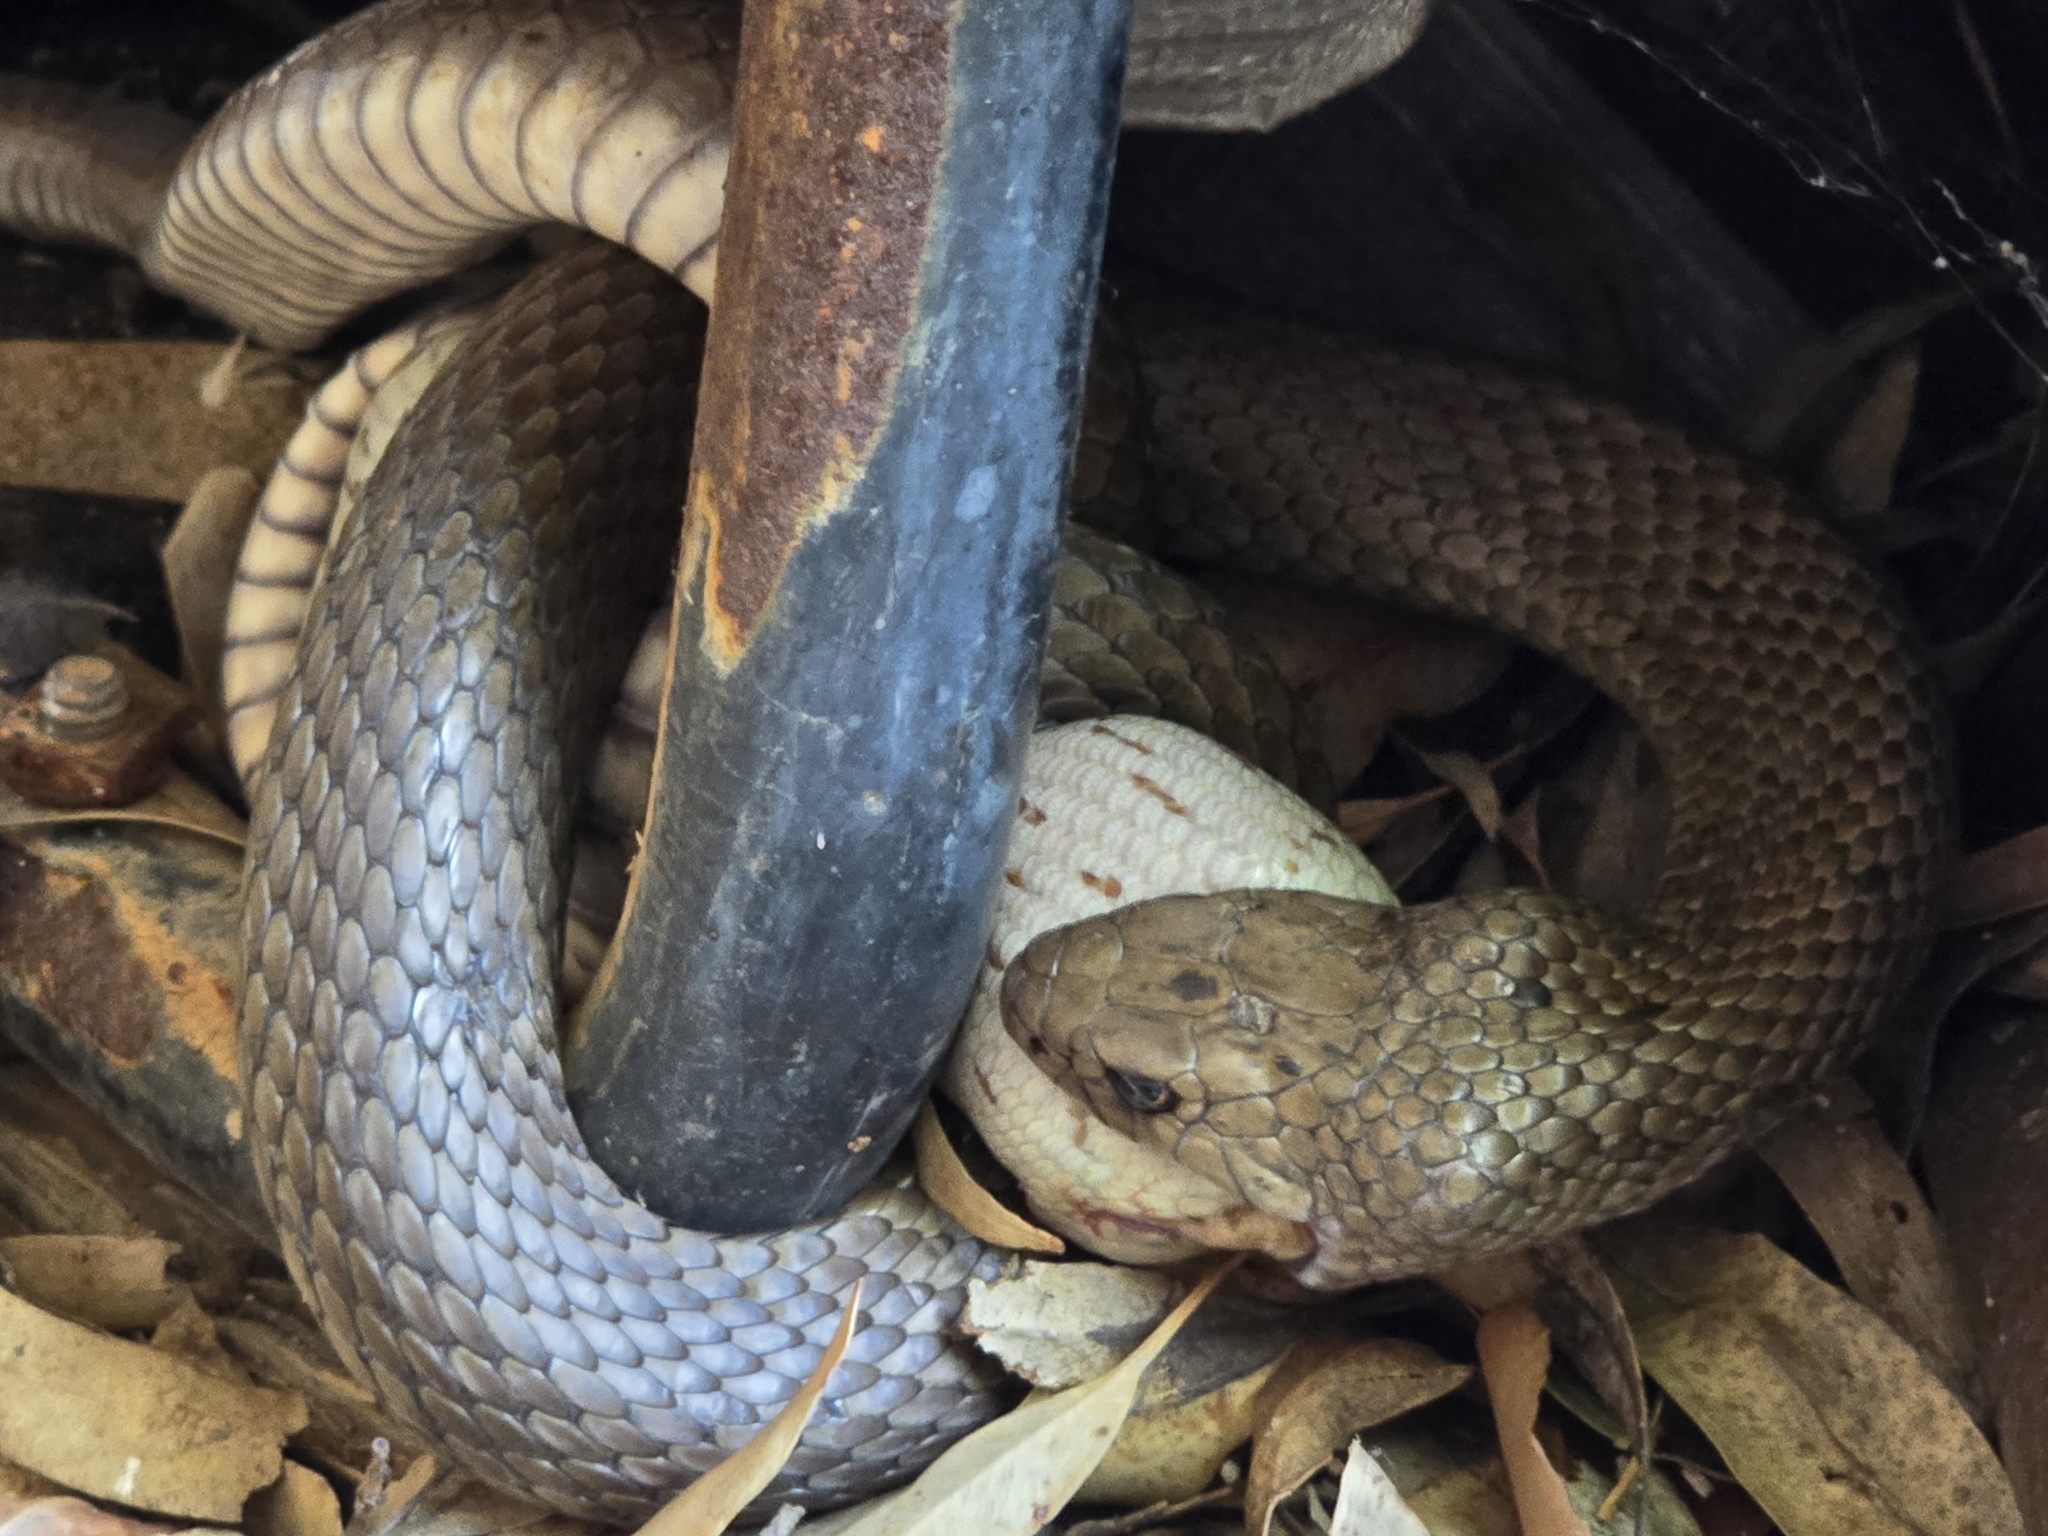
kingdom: Animalia
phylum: Chordata
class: Squamata
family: Elapidae
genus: Pseudonaja
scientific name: Pseudonaja textilis
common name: Eastern brown snake
